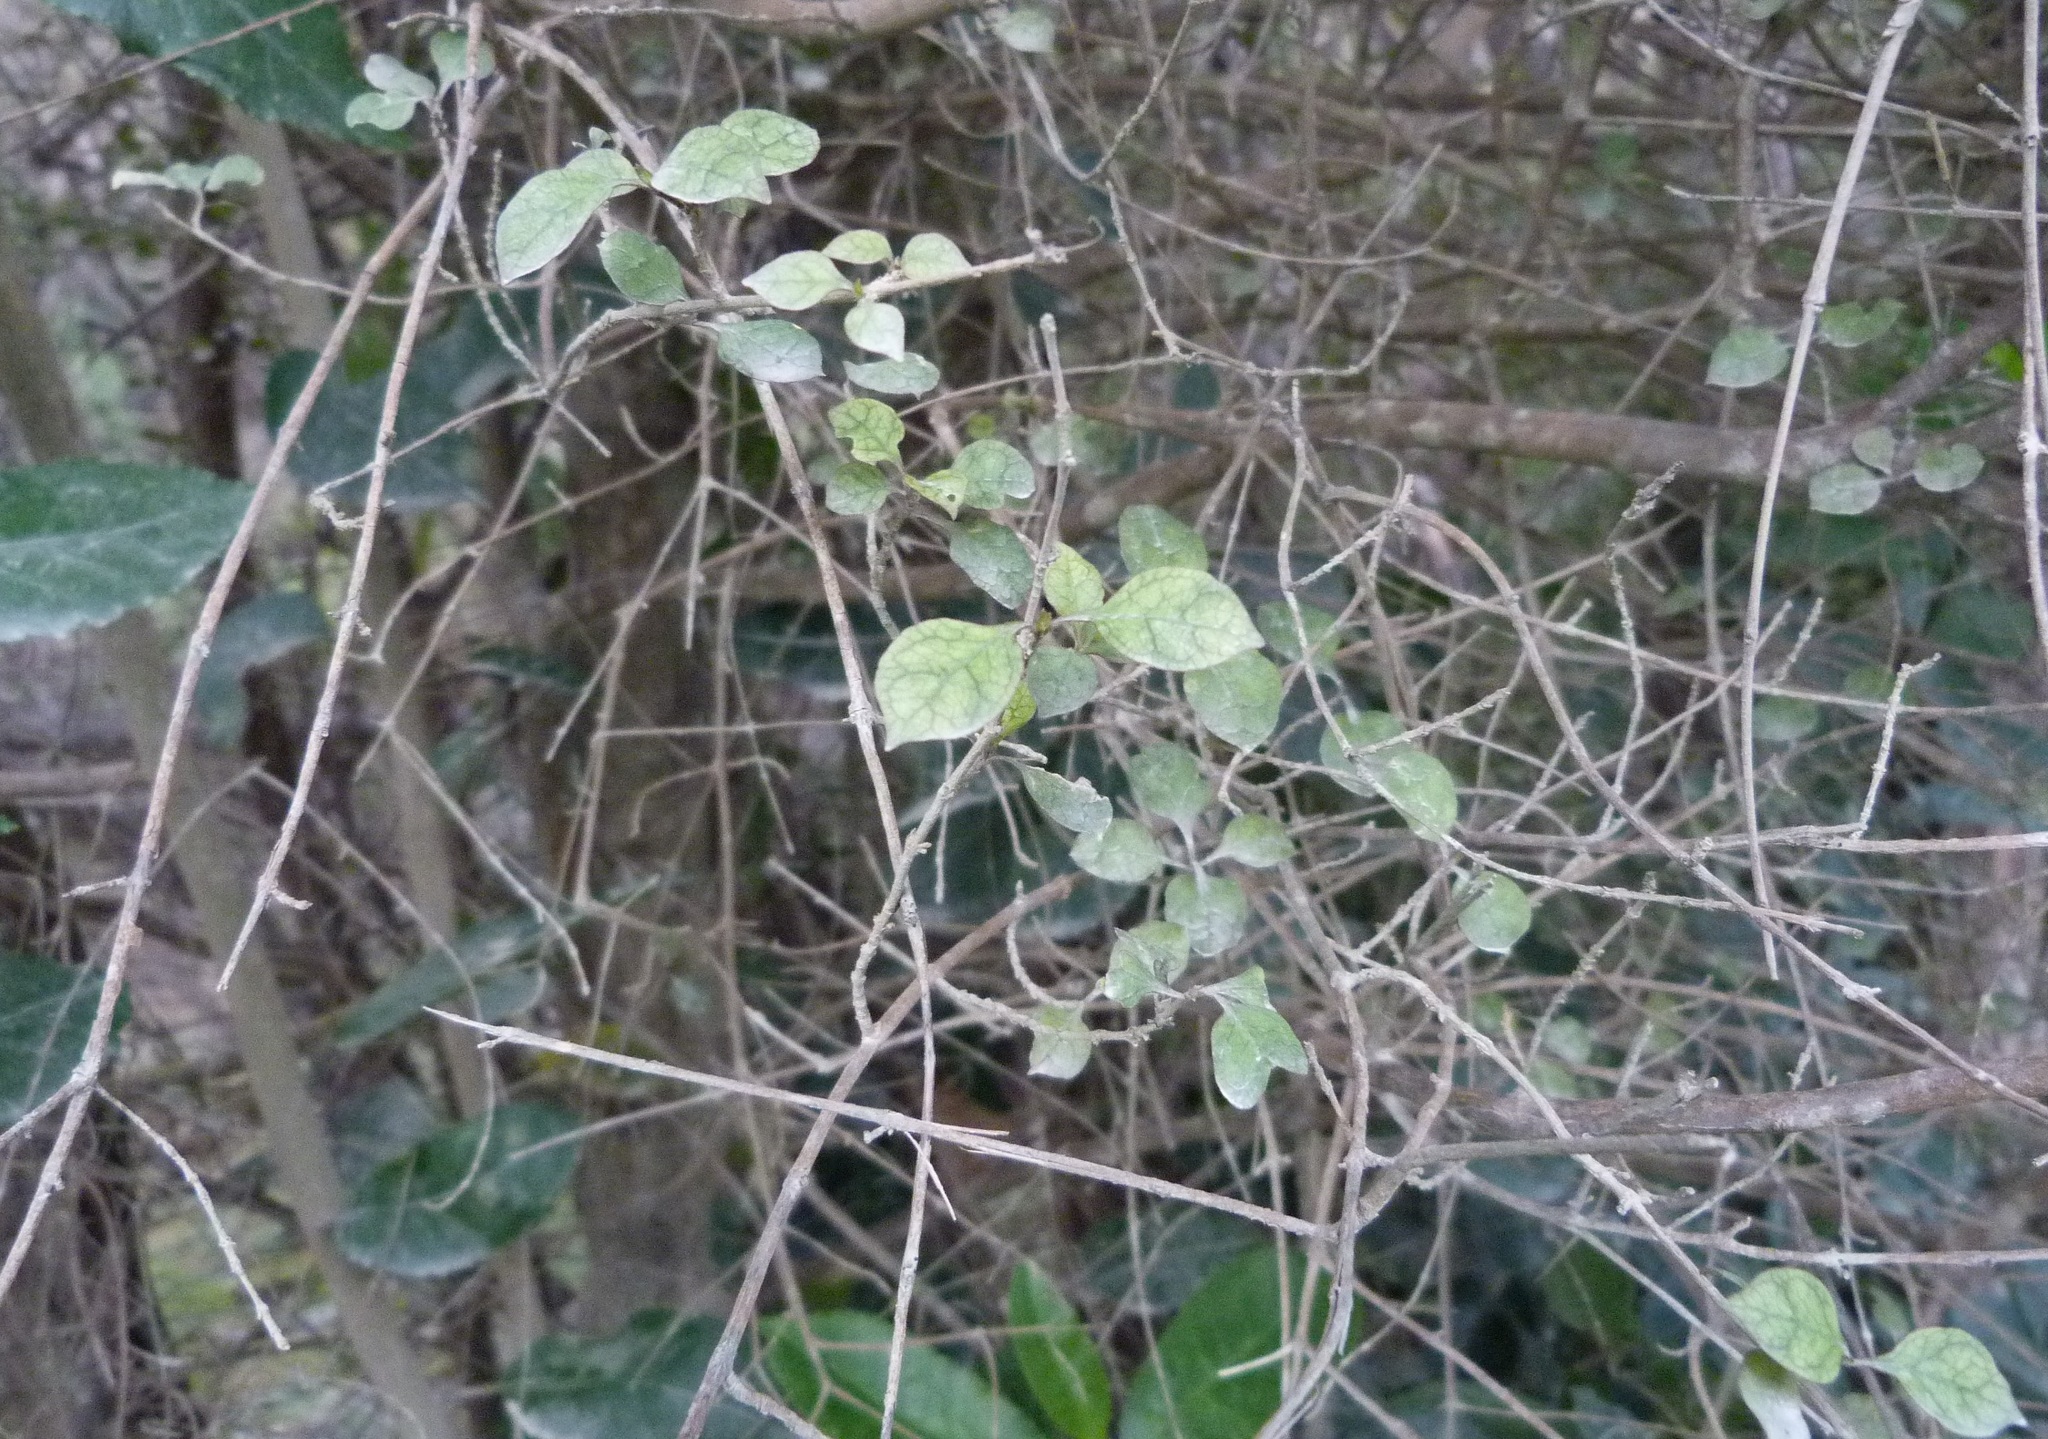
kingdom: Plantae
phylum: Tracheophyta
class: Magnoliopsida
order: Gentianales
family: Rubiaceae
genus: Coprosma
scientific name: Coprosma areolata
